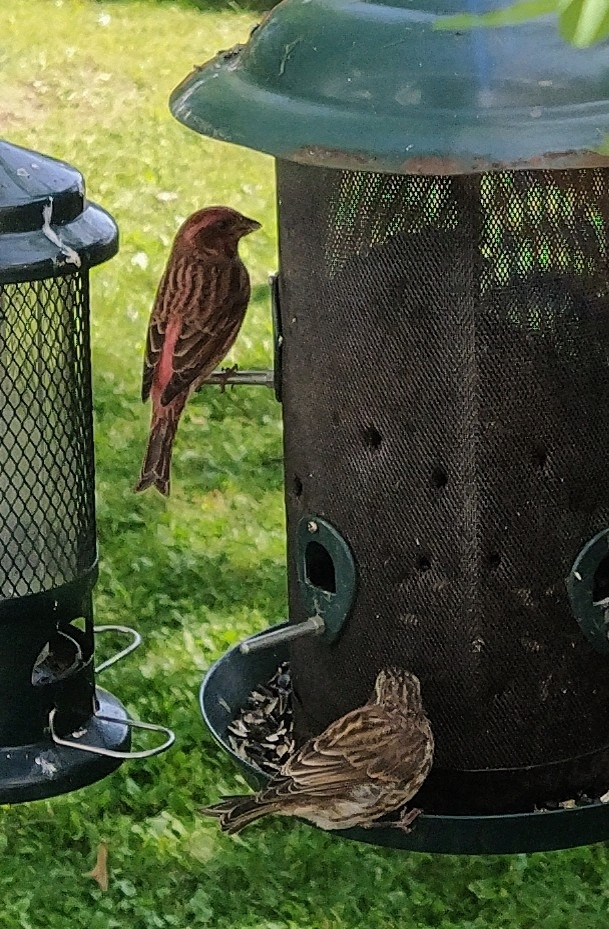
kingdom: Animalia
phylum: Chordata
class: Aves
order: Passeriformes
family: Fringillidae
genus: Haemorhous
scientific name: Haemorhous purpureus
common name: Purple finch
